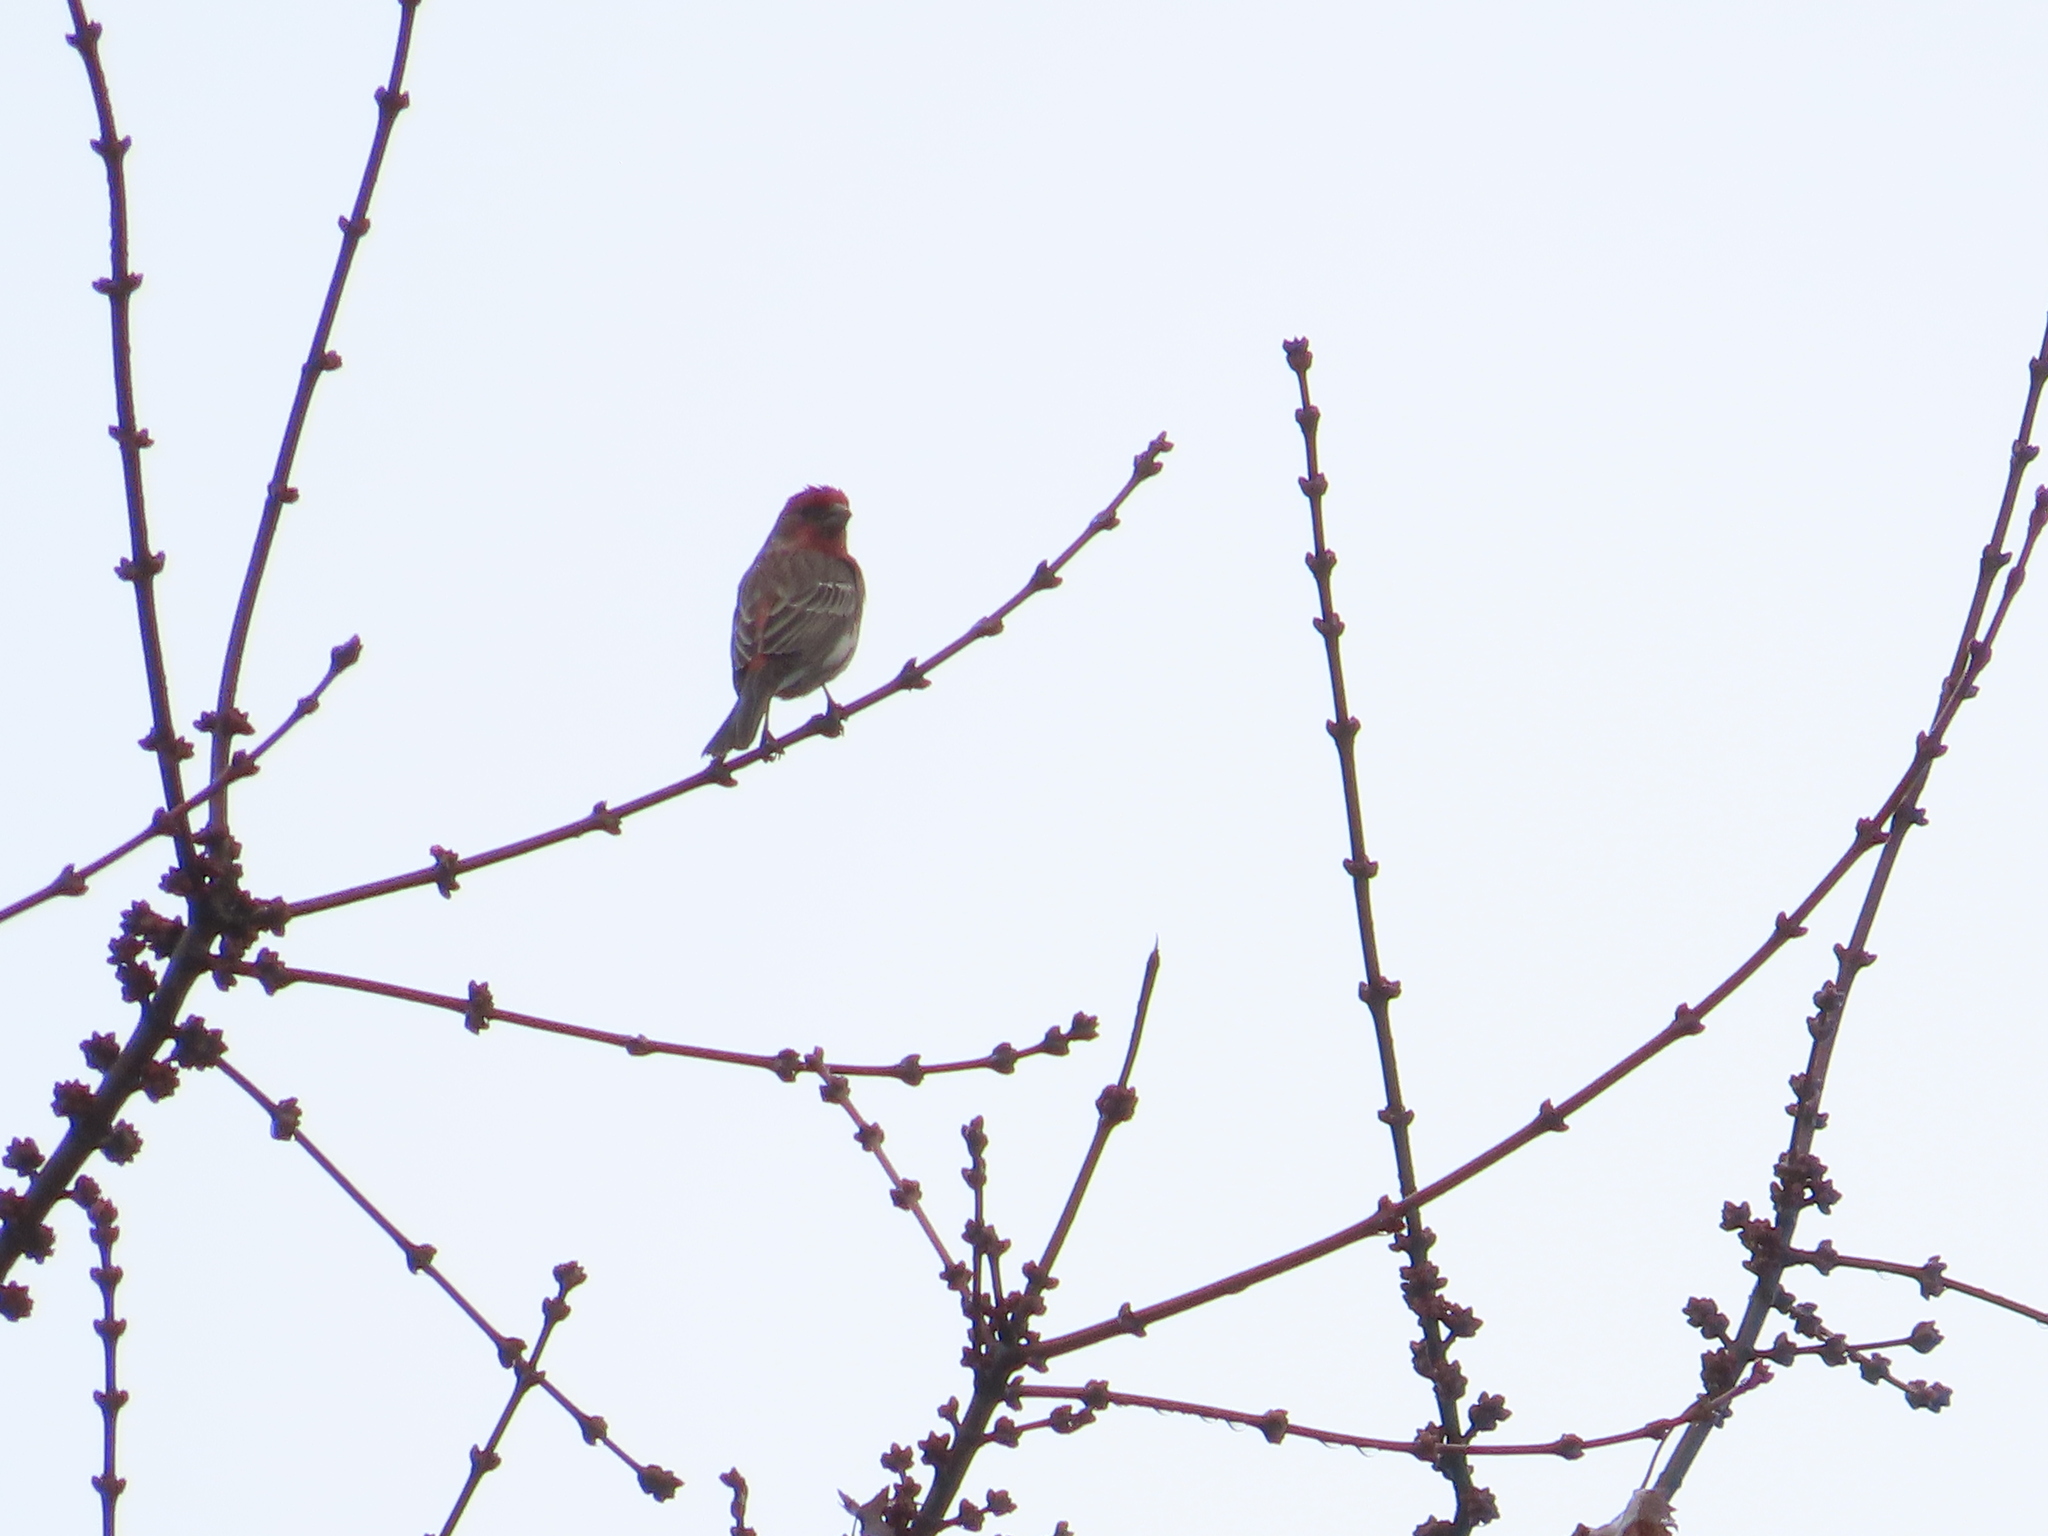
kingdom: Animalia
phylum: Chordata
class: Aves
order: Passeriformes
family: Fringillidae
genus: Haemorhous
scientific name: Haemorhous mexicanus
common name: House finch
